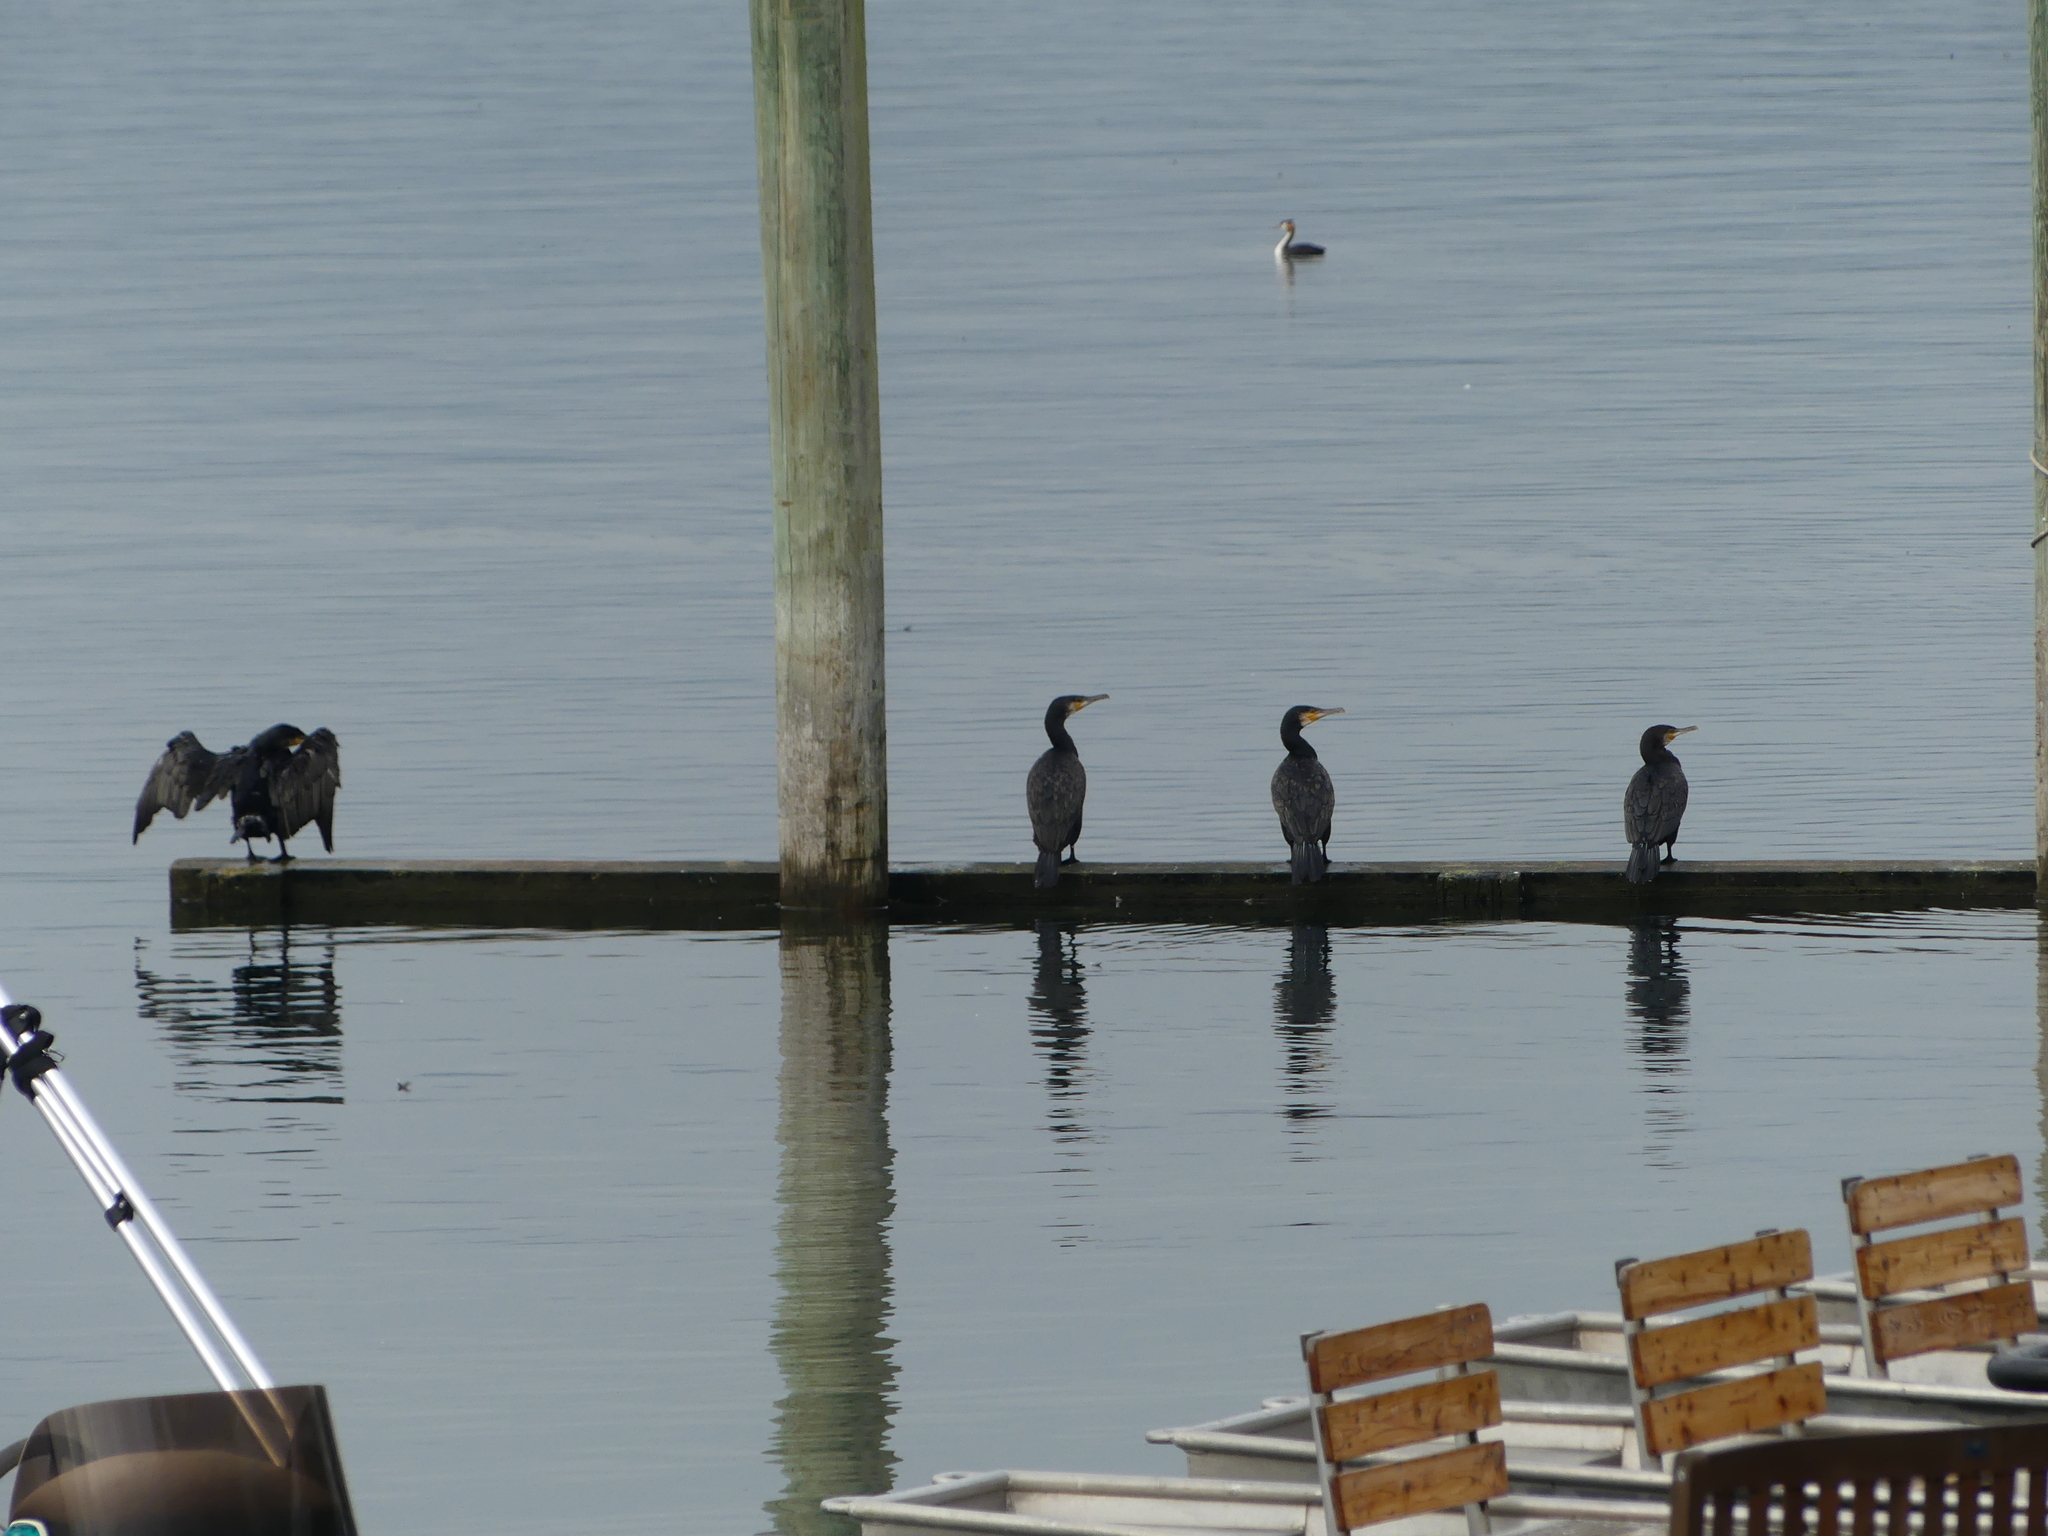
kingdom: Animalia
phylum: Chordata
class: Aves
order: Suliformes
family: Phalacrocoracidae
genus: Phalacrocorax
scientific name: Phalacrocorax carbo
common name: Great cormorant
